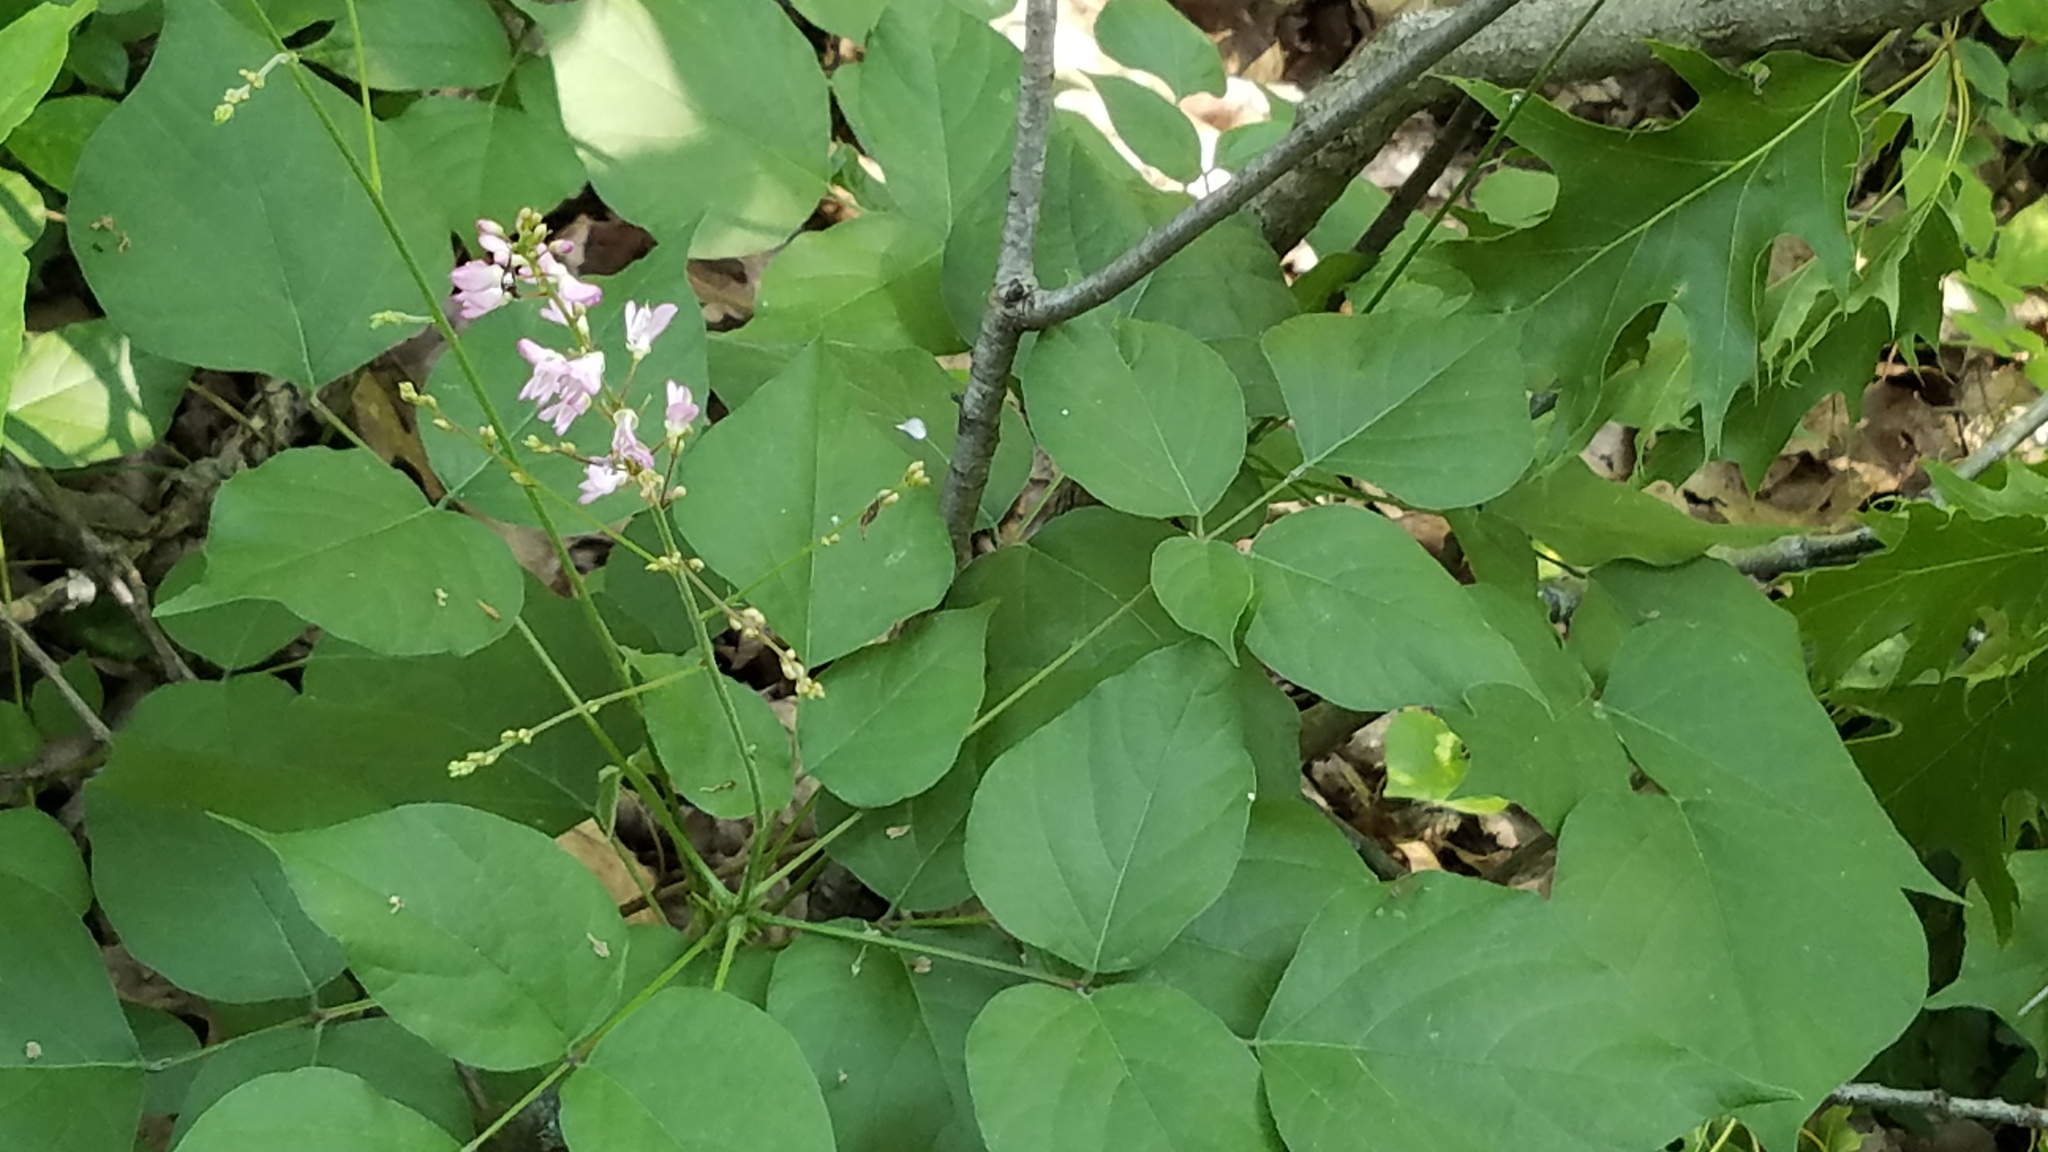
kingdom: Plantae
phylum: Tracheophyta
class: Magnoliopsida
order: Fabales
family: Fabaceae
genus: Hylodesmum
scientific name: Hylodesmum glutinosum
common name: Clustered-leaved tick-trefoil
